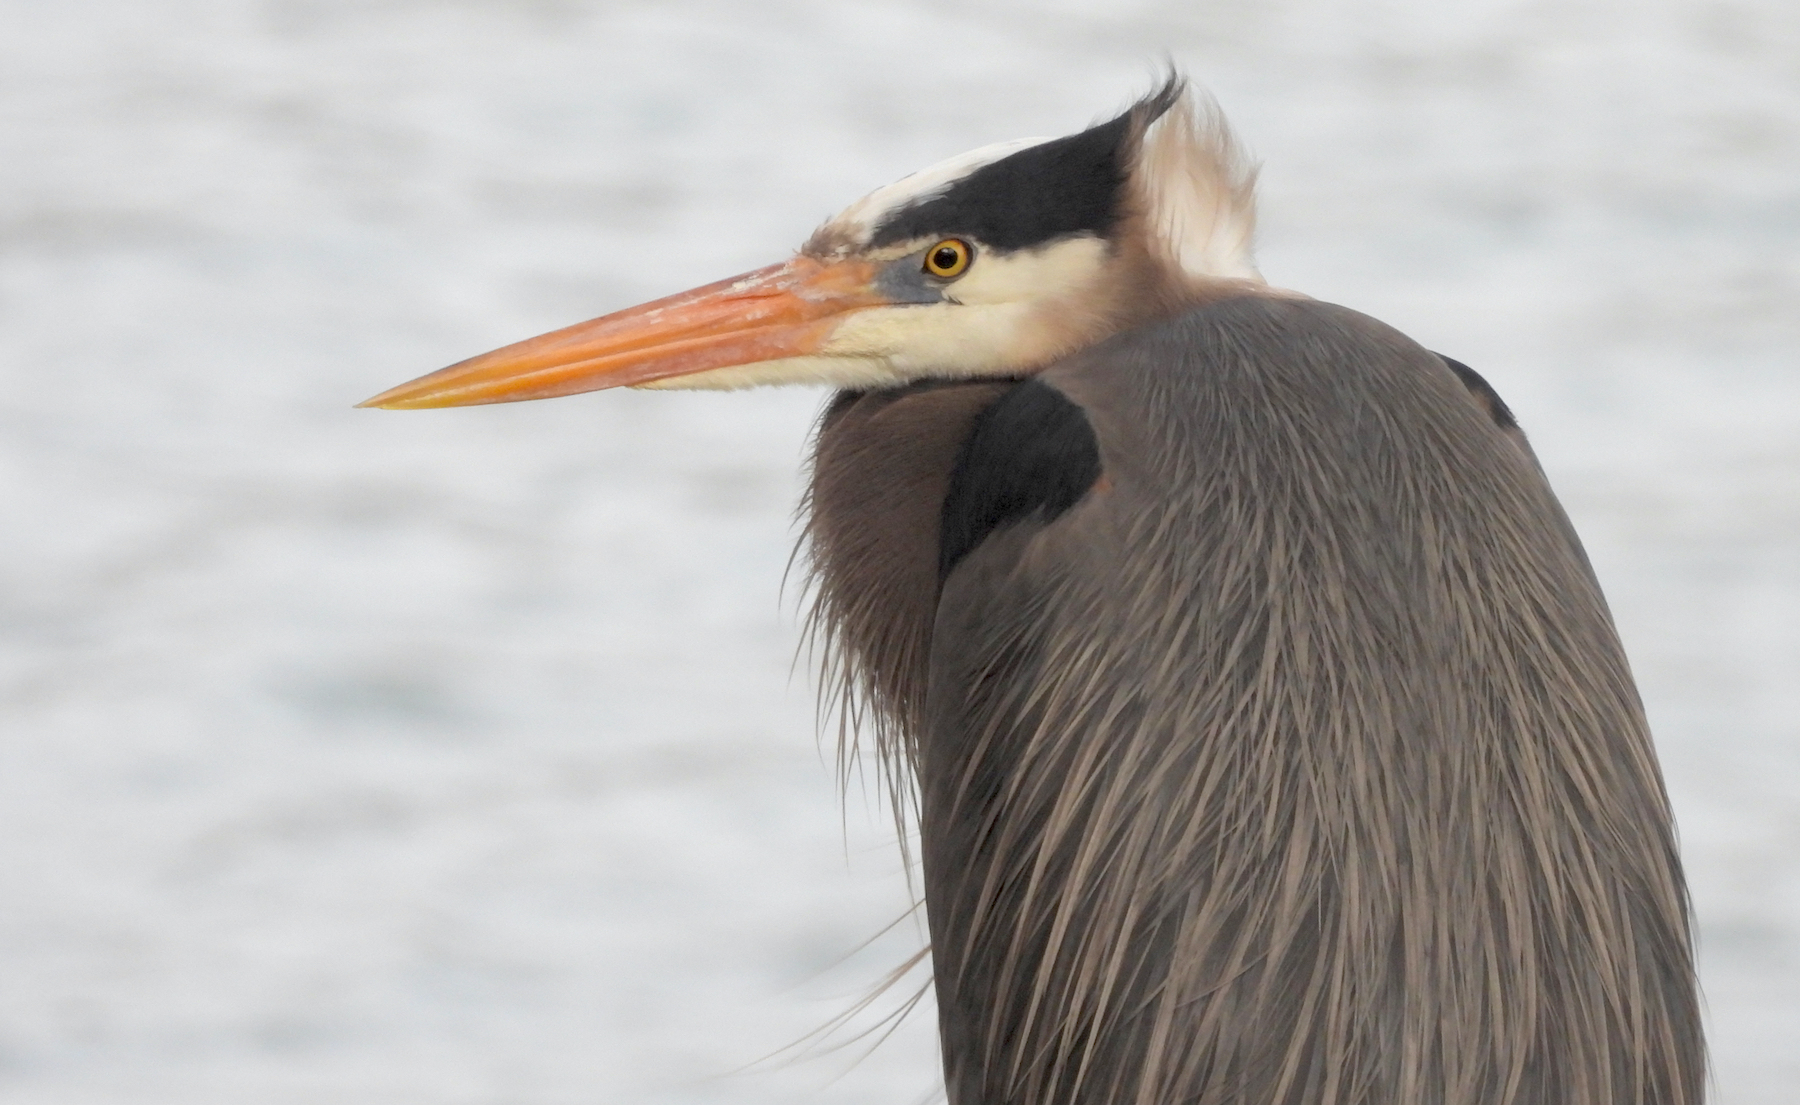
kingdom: Animalia
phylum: Chordata
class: Aves
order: Pelecaniformes
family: Ardeidae
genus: Ardea
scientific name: Ardea herodias
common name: Great blue heron
